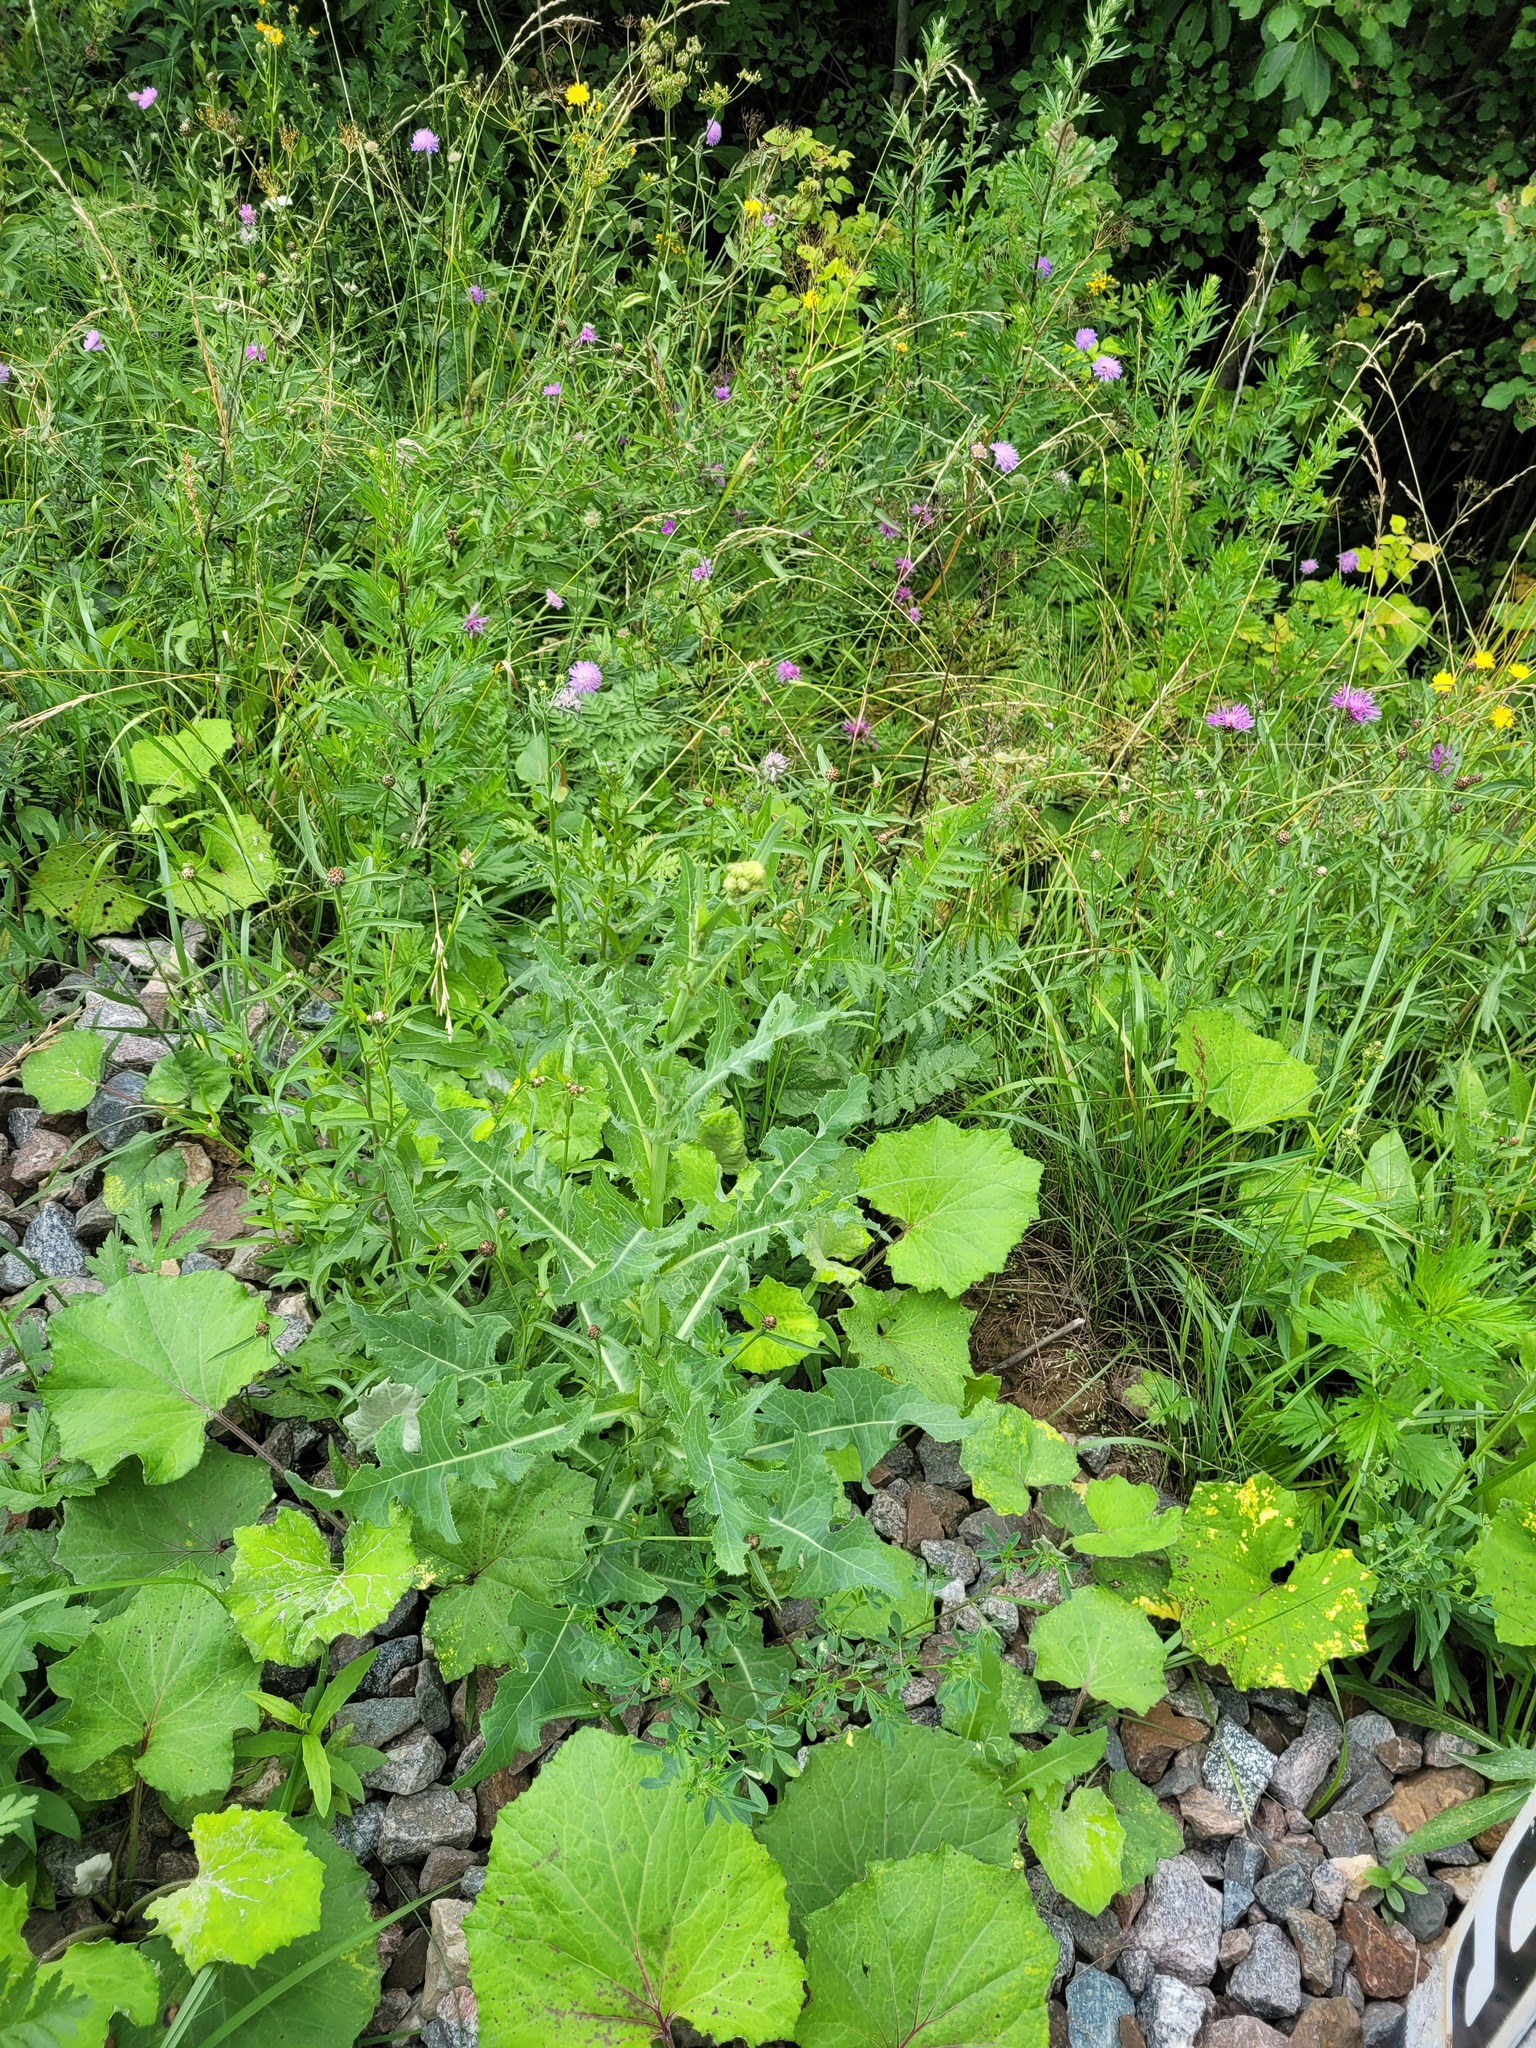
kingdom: Plantae
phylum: Tracheophyta
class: Magnoliopsida
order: Asterales
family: Asteraceae
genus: Sonchus
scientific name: Sonchus arvensis
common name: Perennial sow-thistle
